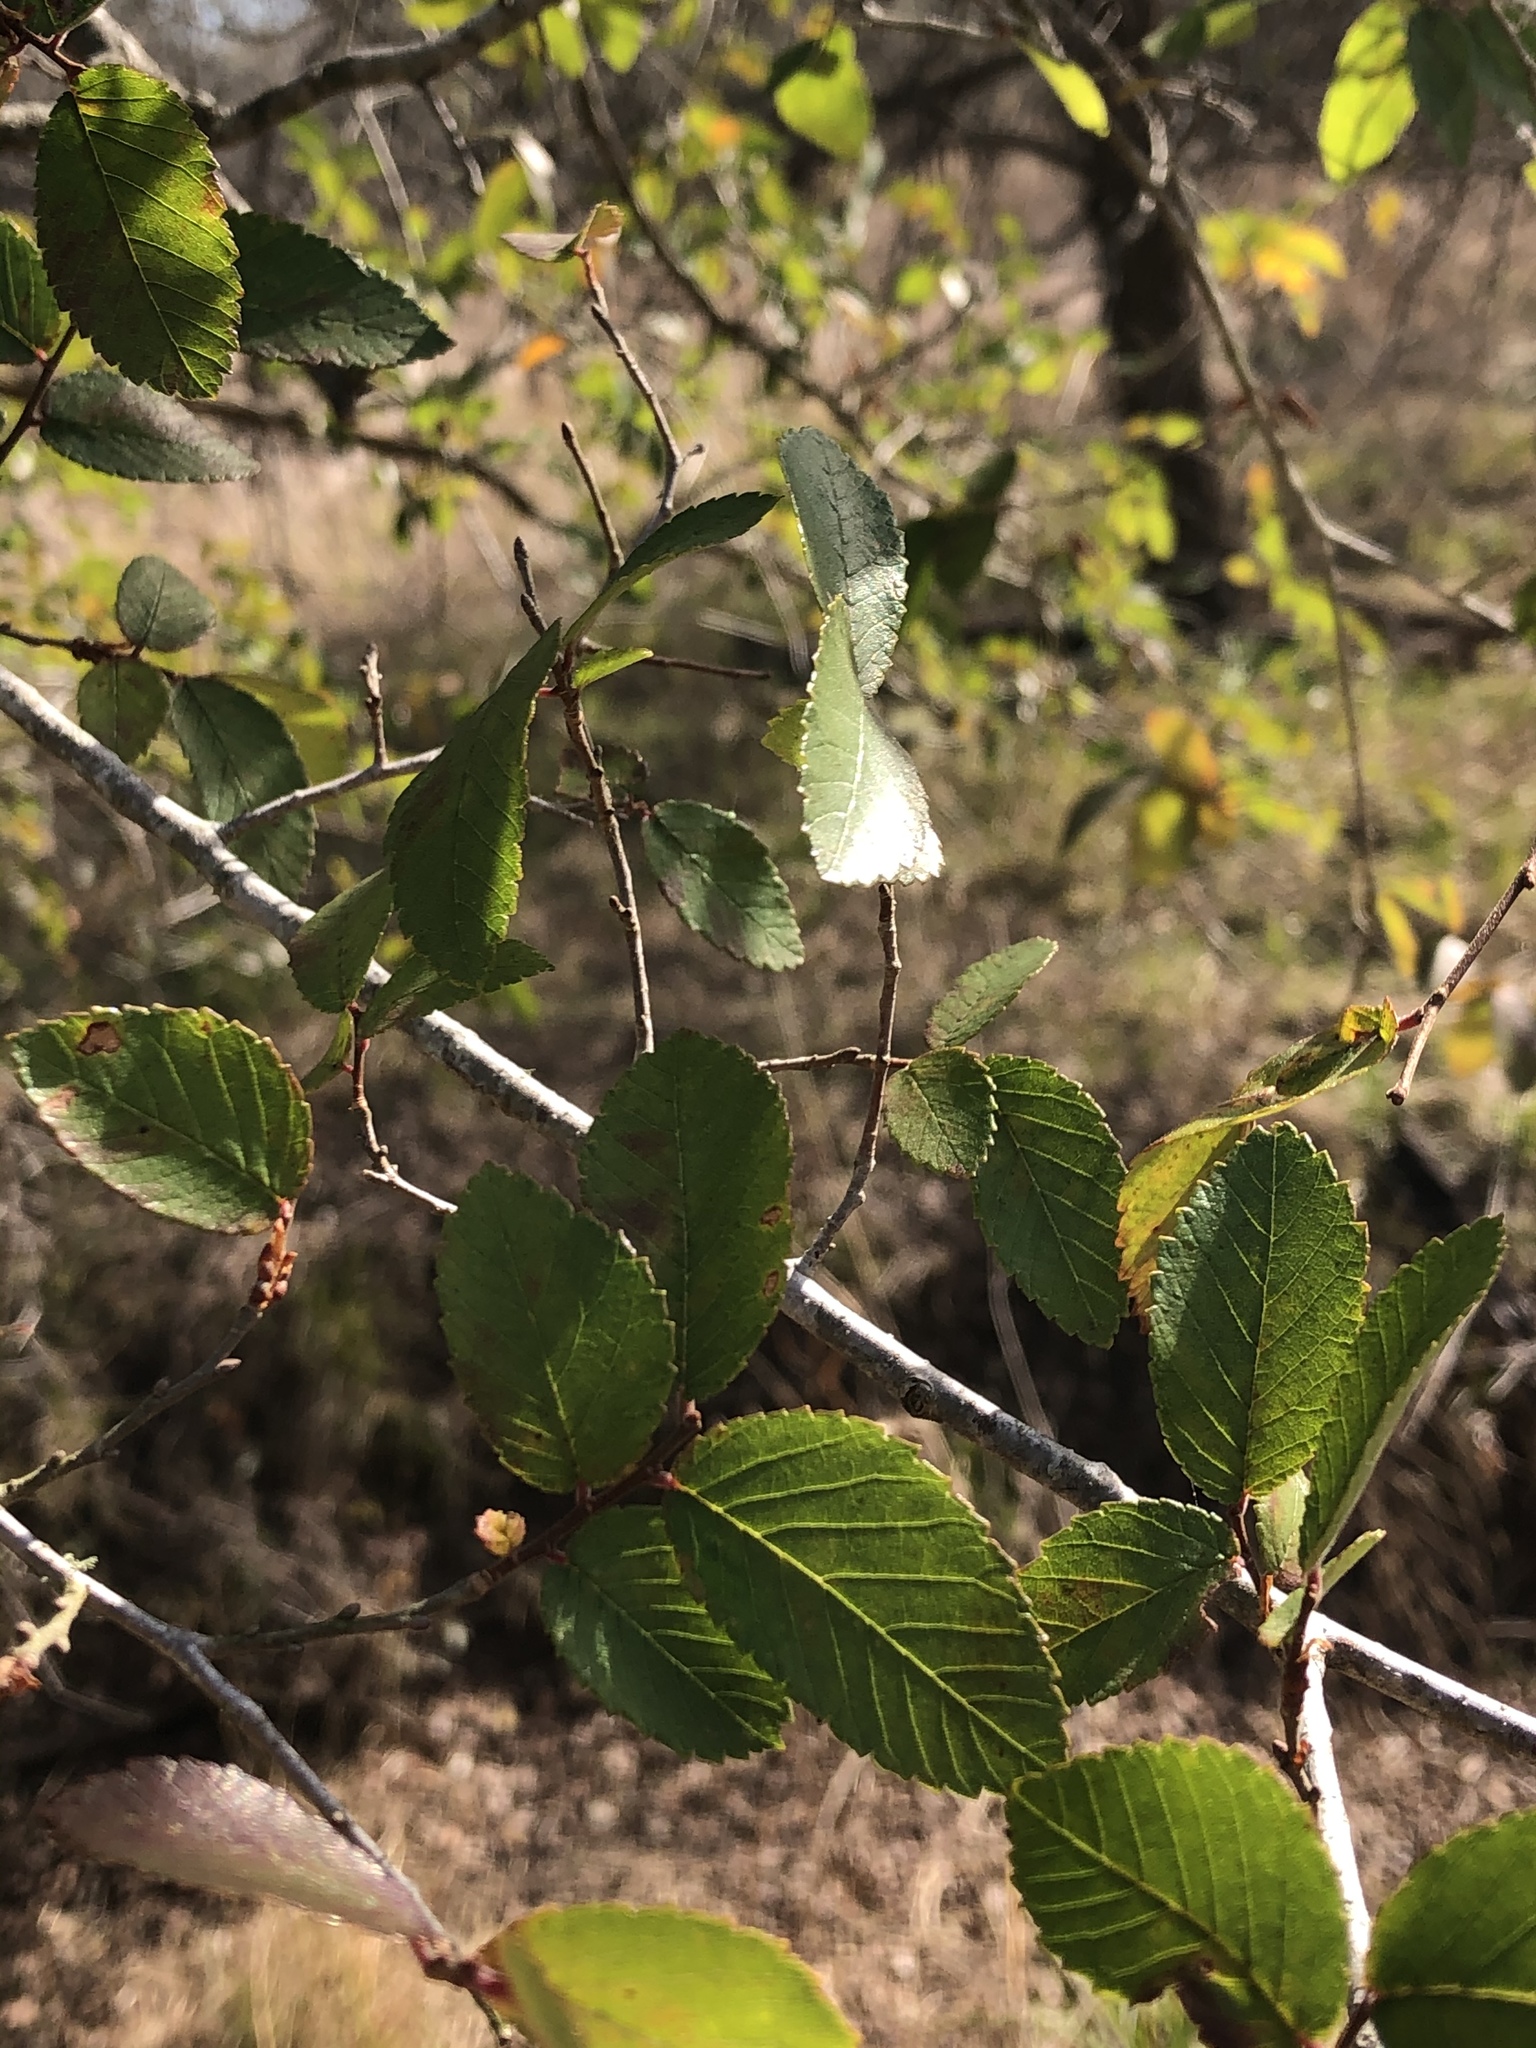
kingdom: Plantae
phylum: Tracheophyta
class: Magnoliopsida
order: Rosales
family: Ulmaceae
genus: Ulmus
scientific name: Ulmus crassifolia
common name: Basket elm
